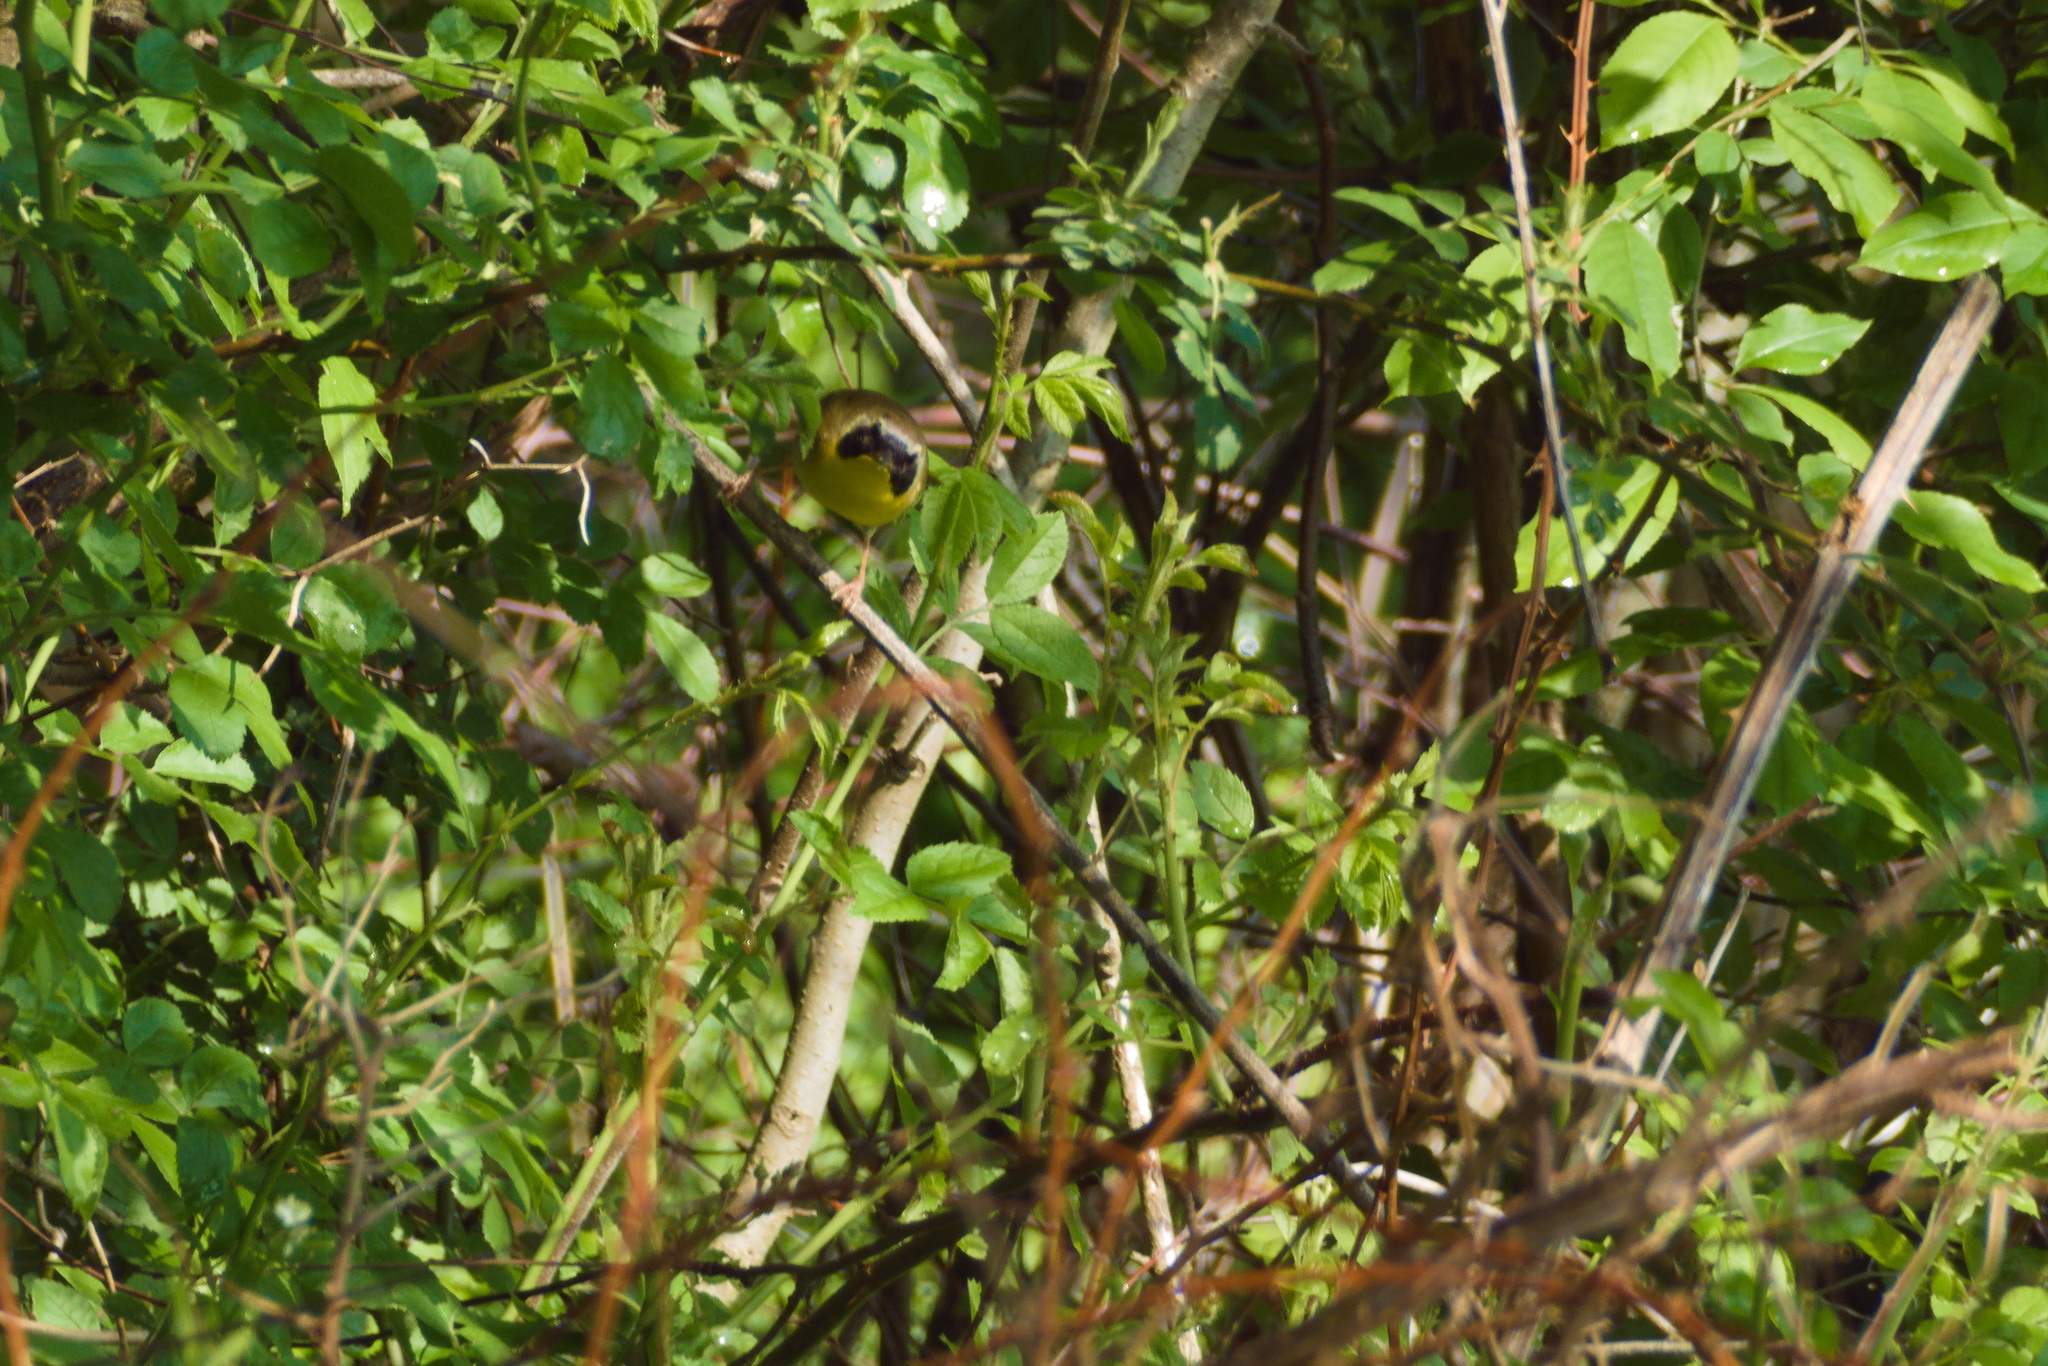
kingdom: Animalia
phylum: Chordata
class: Aves
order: Passeriformes
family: Parulidae
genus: Geothlypis
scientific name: Geothlypis trichas
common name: Common yellowthroat
